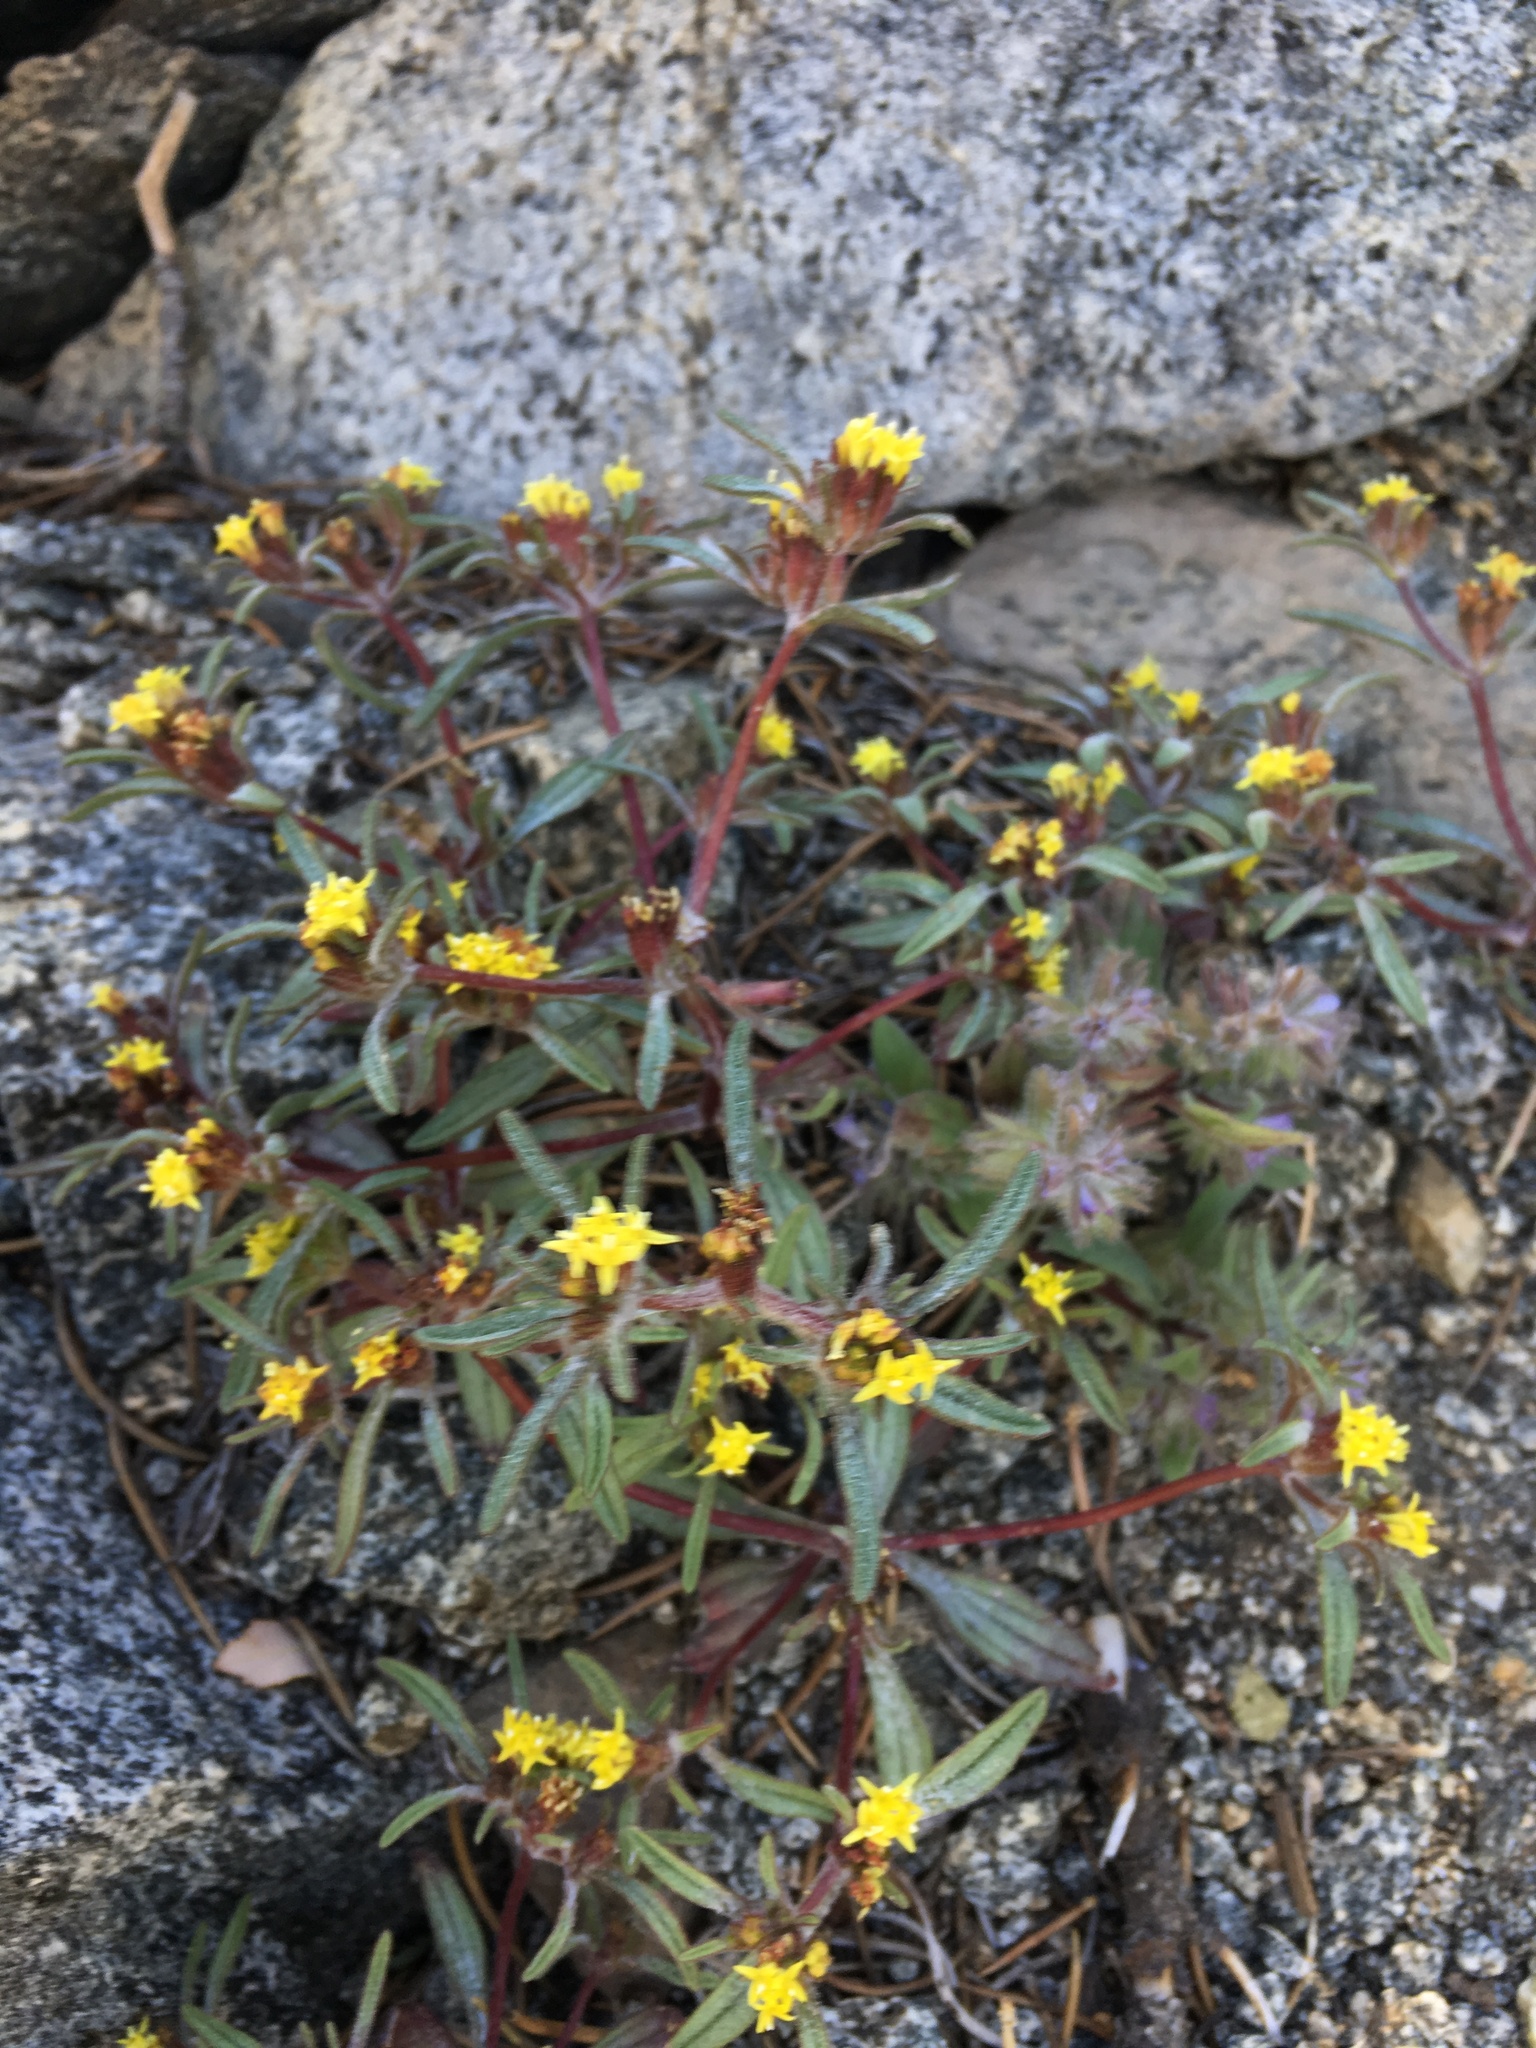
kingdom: Plantae
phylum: Tracheophyta
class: Magnoliopsida
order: Asterales
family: Asteraceae
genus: Orochaenactis
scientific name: Orochaenactis thysanocarpha
